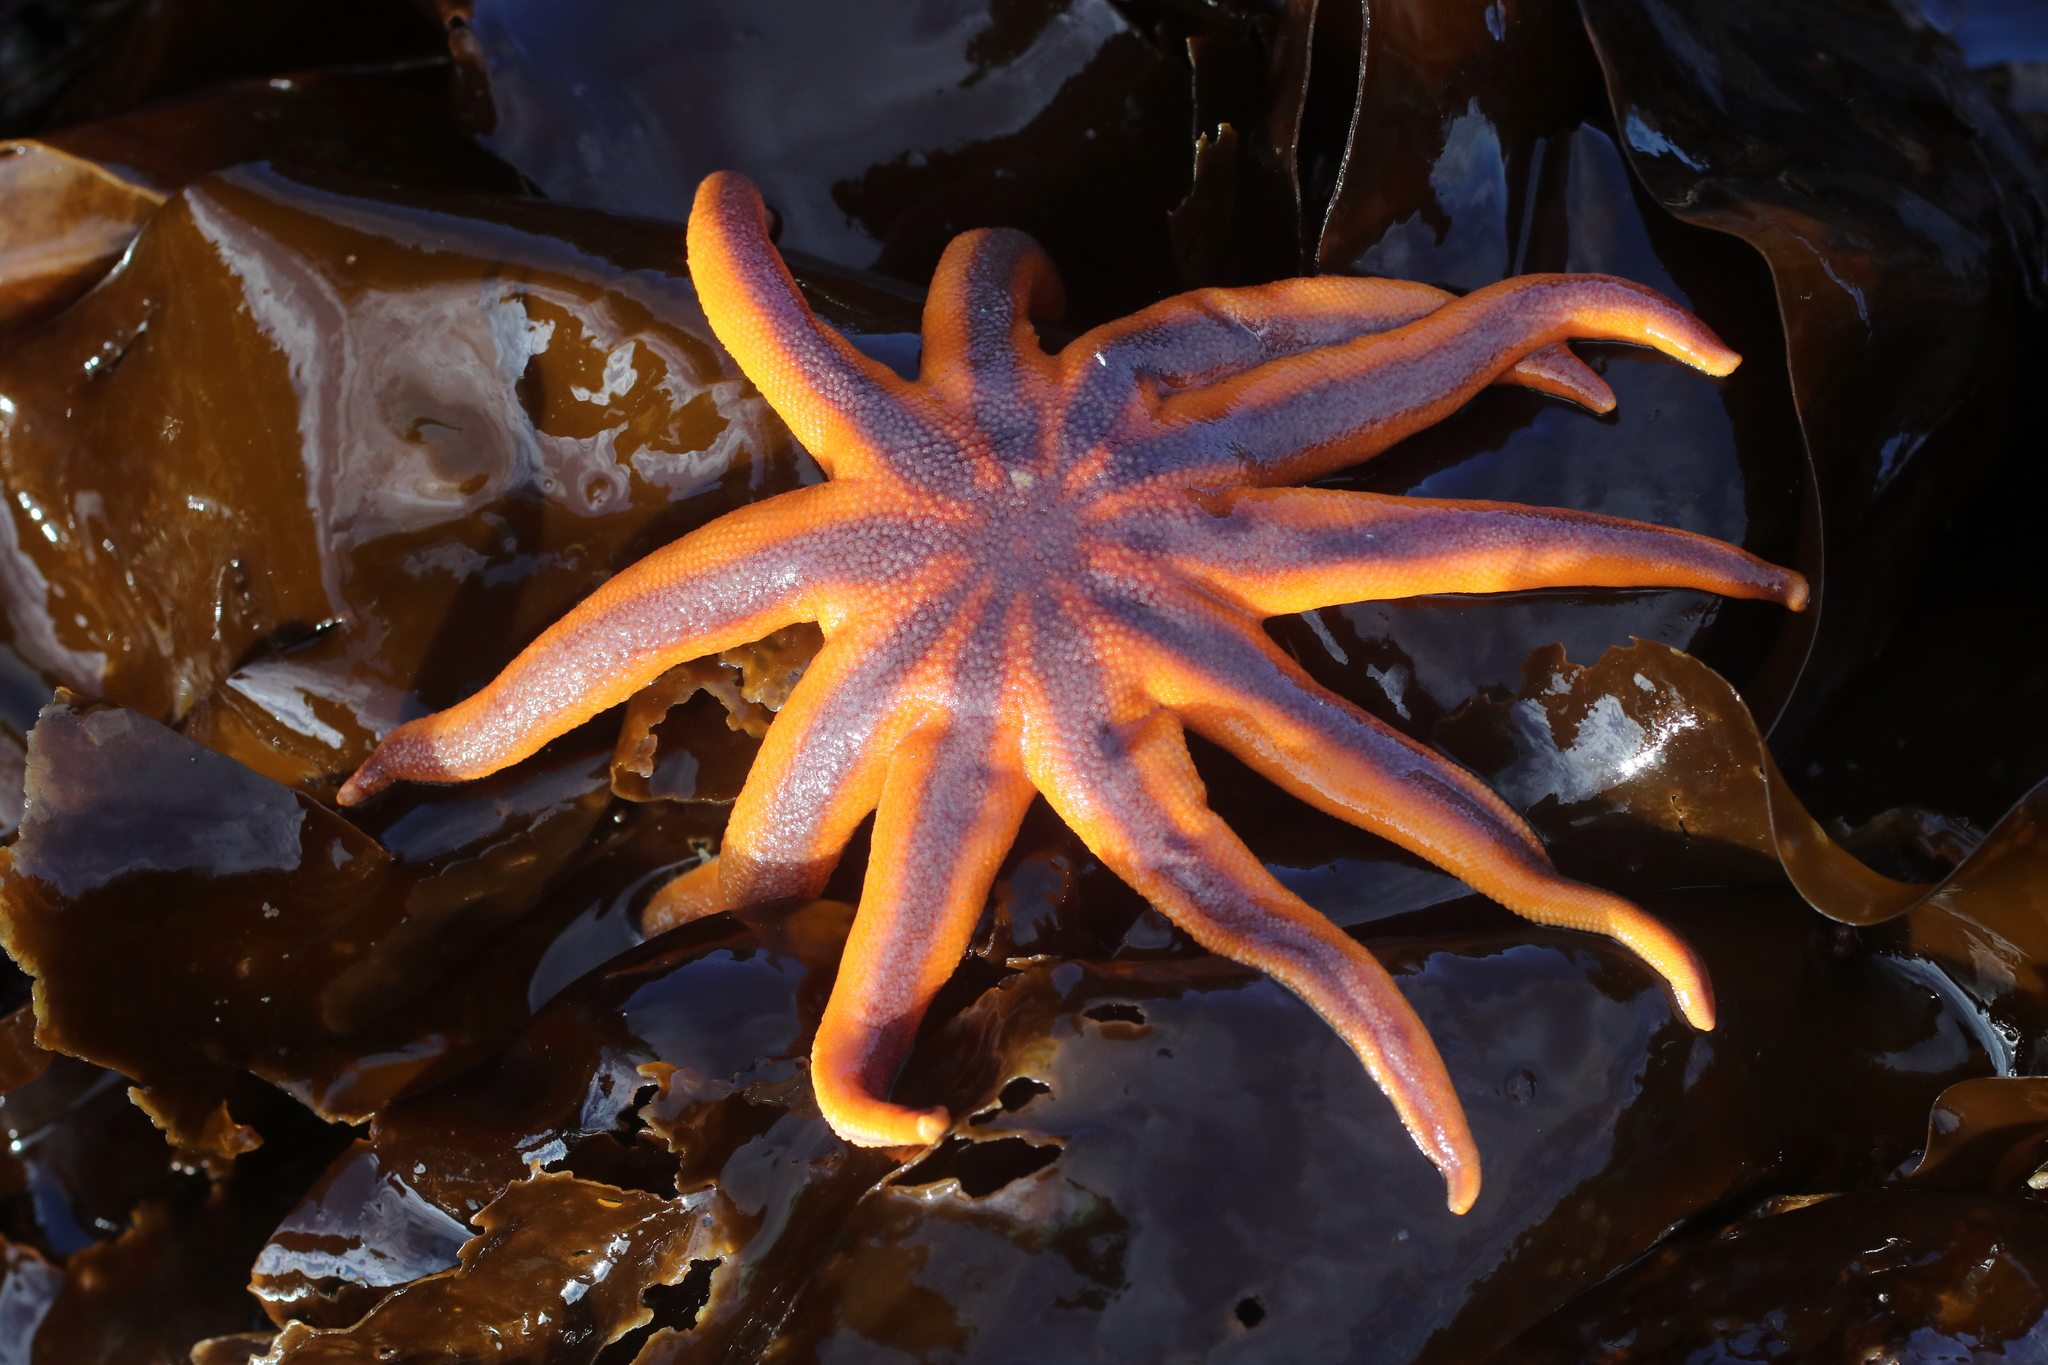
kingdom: Animalia
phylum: Echinodermata
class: Asteroidea
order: Valvatida
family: Solasteridae
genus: Solaster
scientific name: Solaster stimpsoni
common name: Orange sun star
